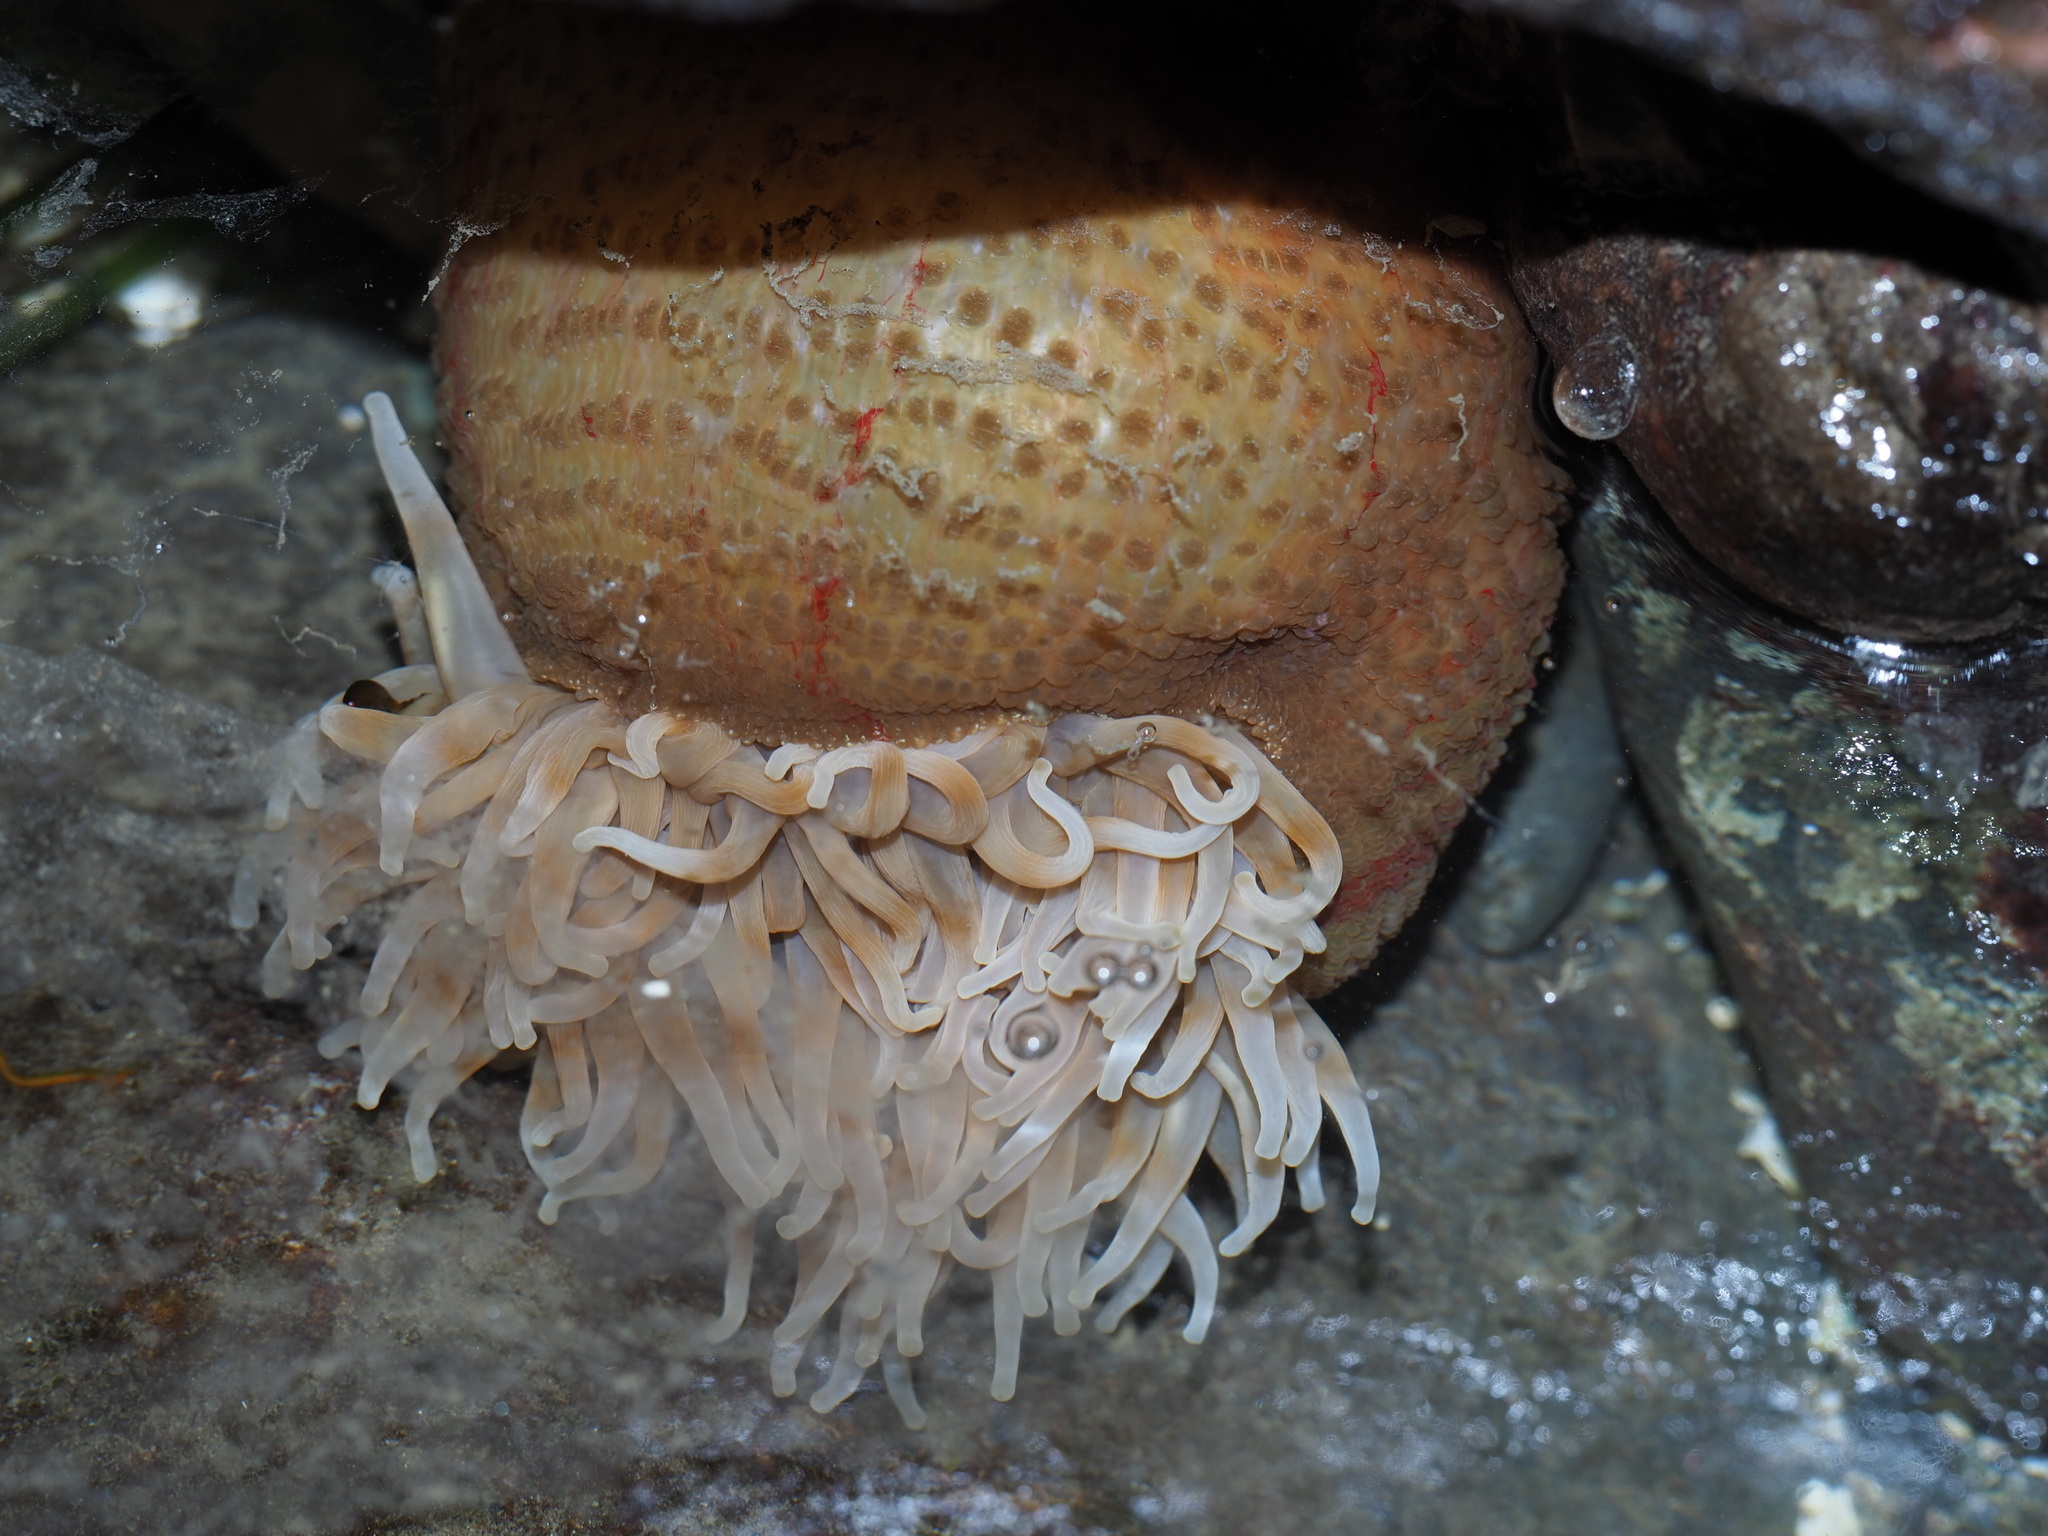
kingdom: Animalia
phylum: Cnidaria
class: Anthozoa
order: Actiniaria
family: Actiniidae
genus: Urticina
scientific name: Urticina grebelnyi
